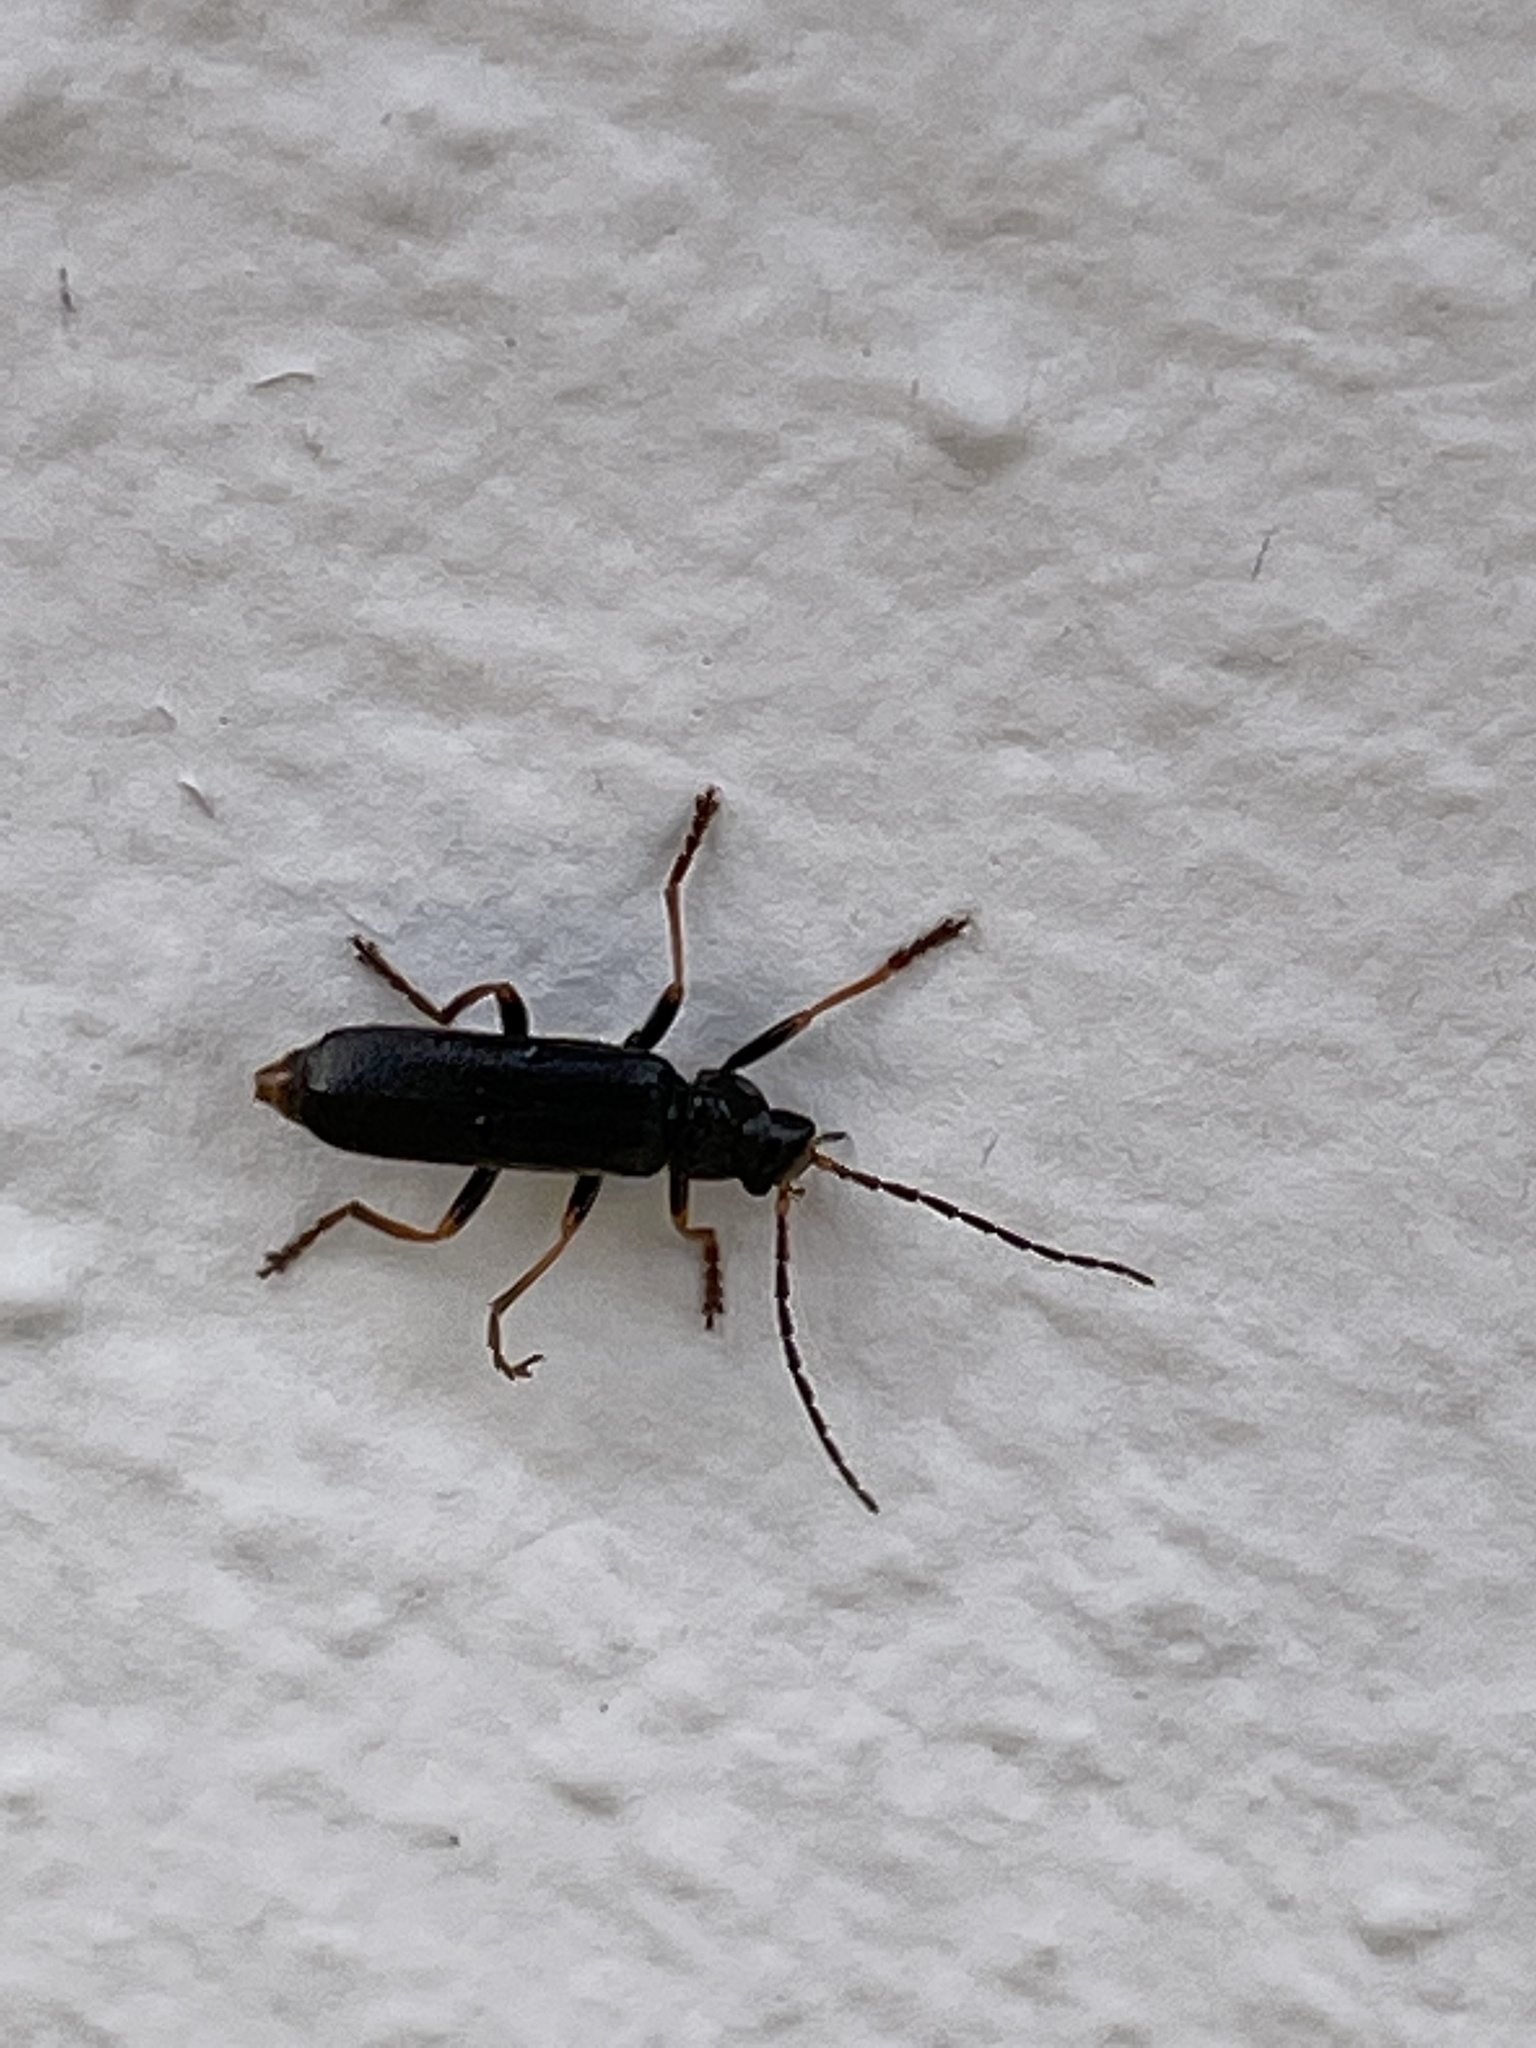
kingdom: Animalia
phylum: Arthropoda
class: Insecta
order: Coleoptera
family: Cantharidae
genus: Cantharis
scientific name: Cantharis flavilabris
